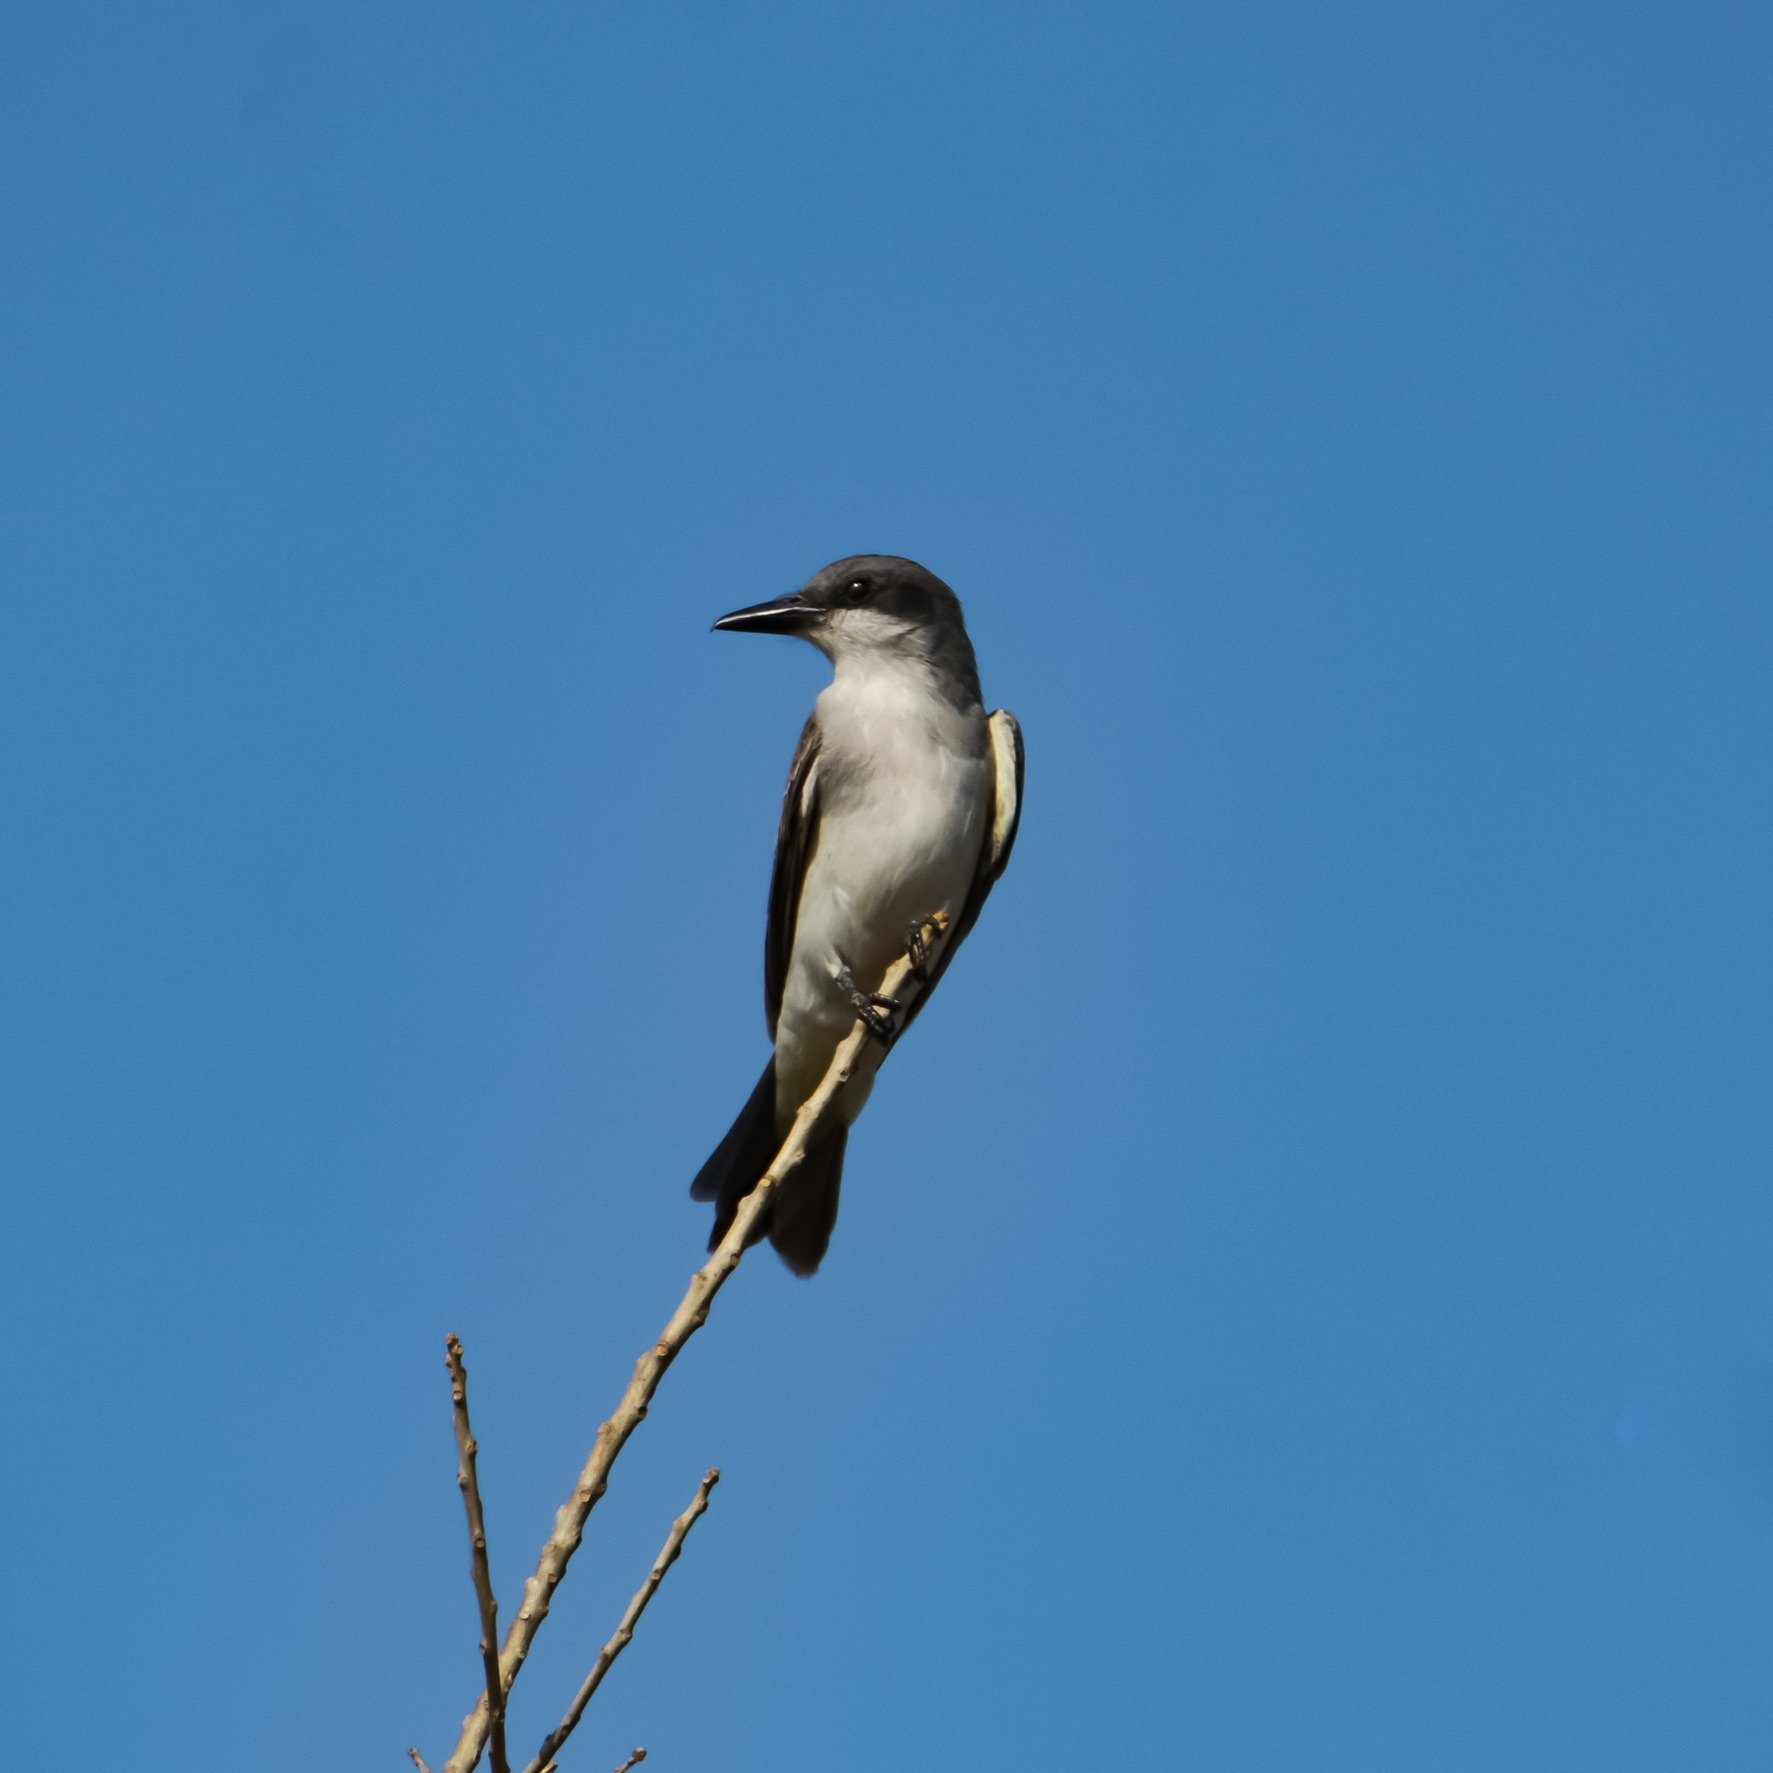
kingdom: Animalia
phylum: Chordata
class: Aves
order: Passeriformes
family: Tyrannidae
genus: Tyrannus
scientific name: Tyrannus dominicensis
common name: Gray kingbird
